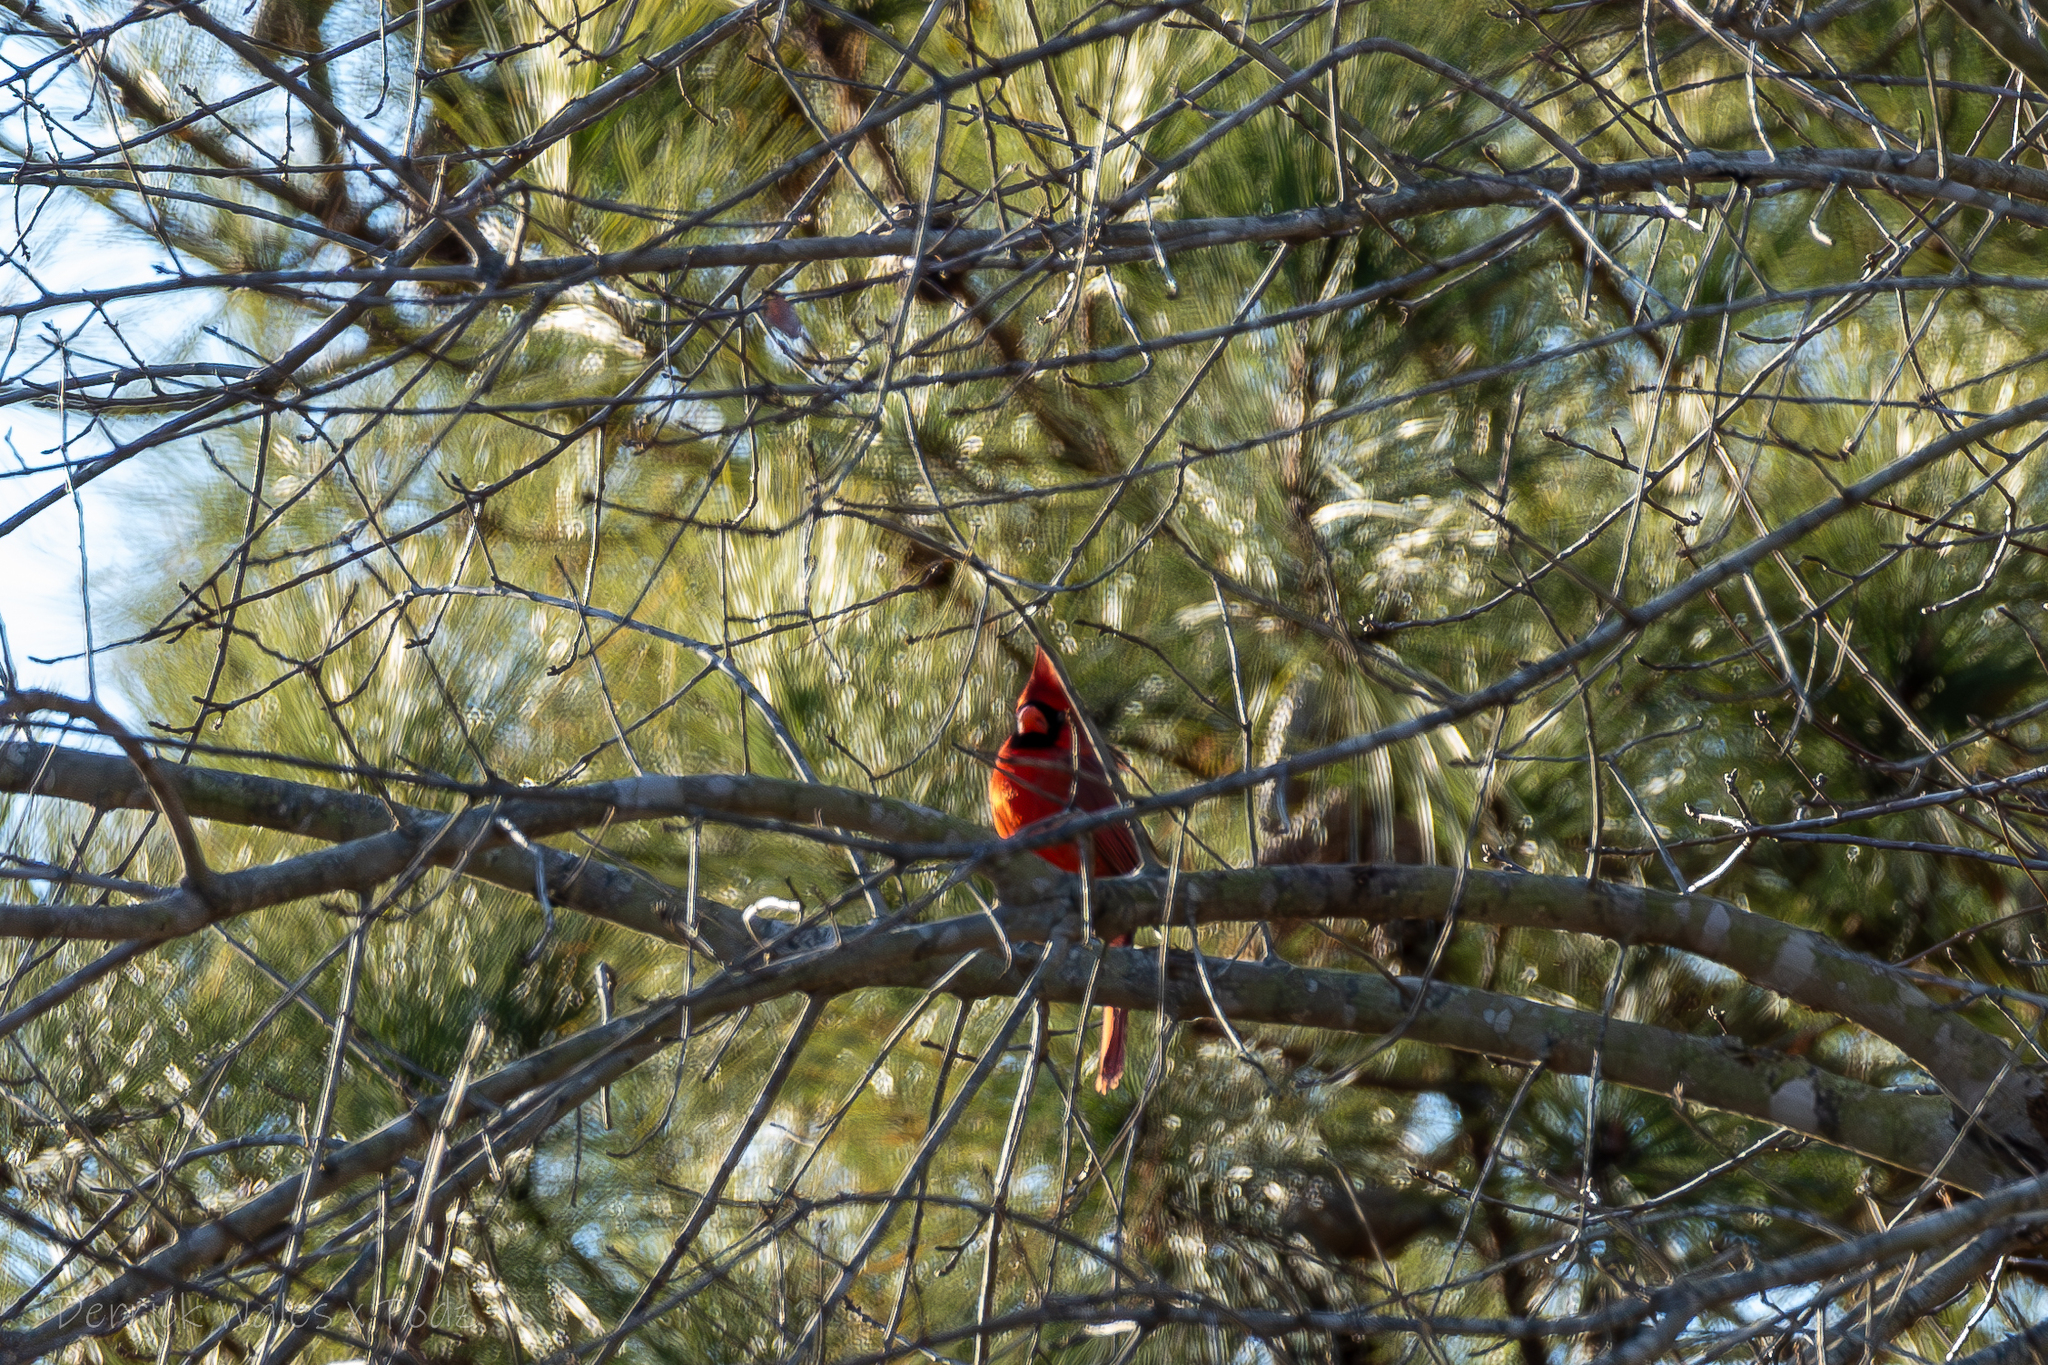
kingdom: Animalia
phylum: Chordata
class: Aves
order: Passeriformes
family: Cardinalidae
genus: Cardinalis
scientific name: Cardinalis cardinalis
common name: Northern cardinal
